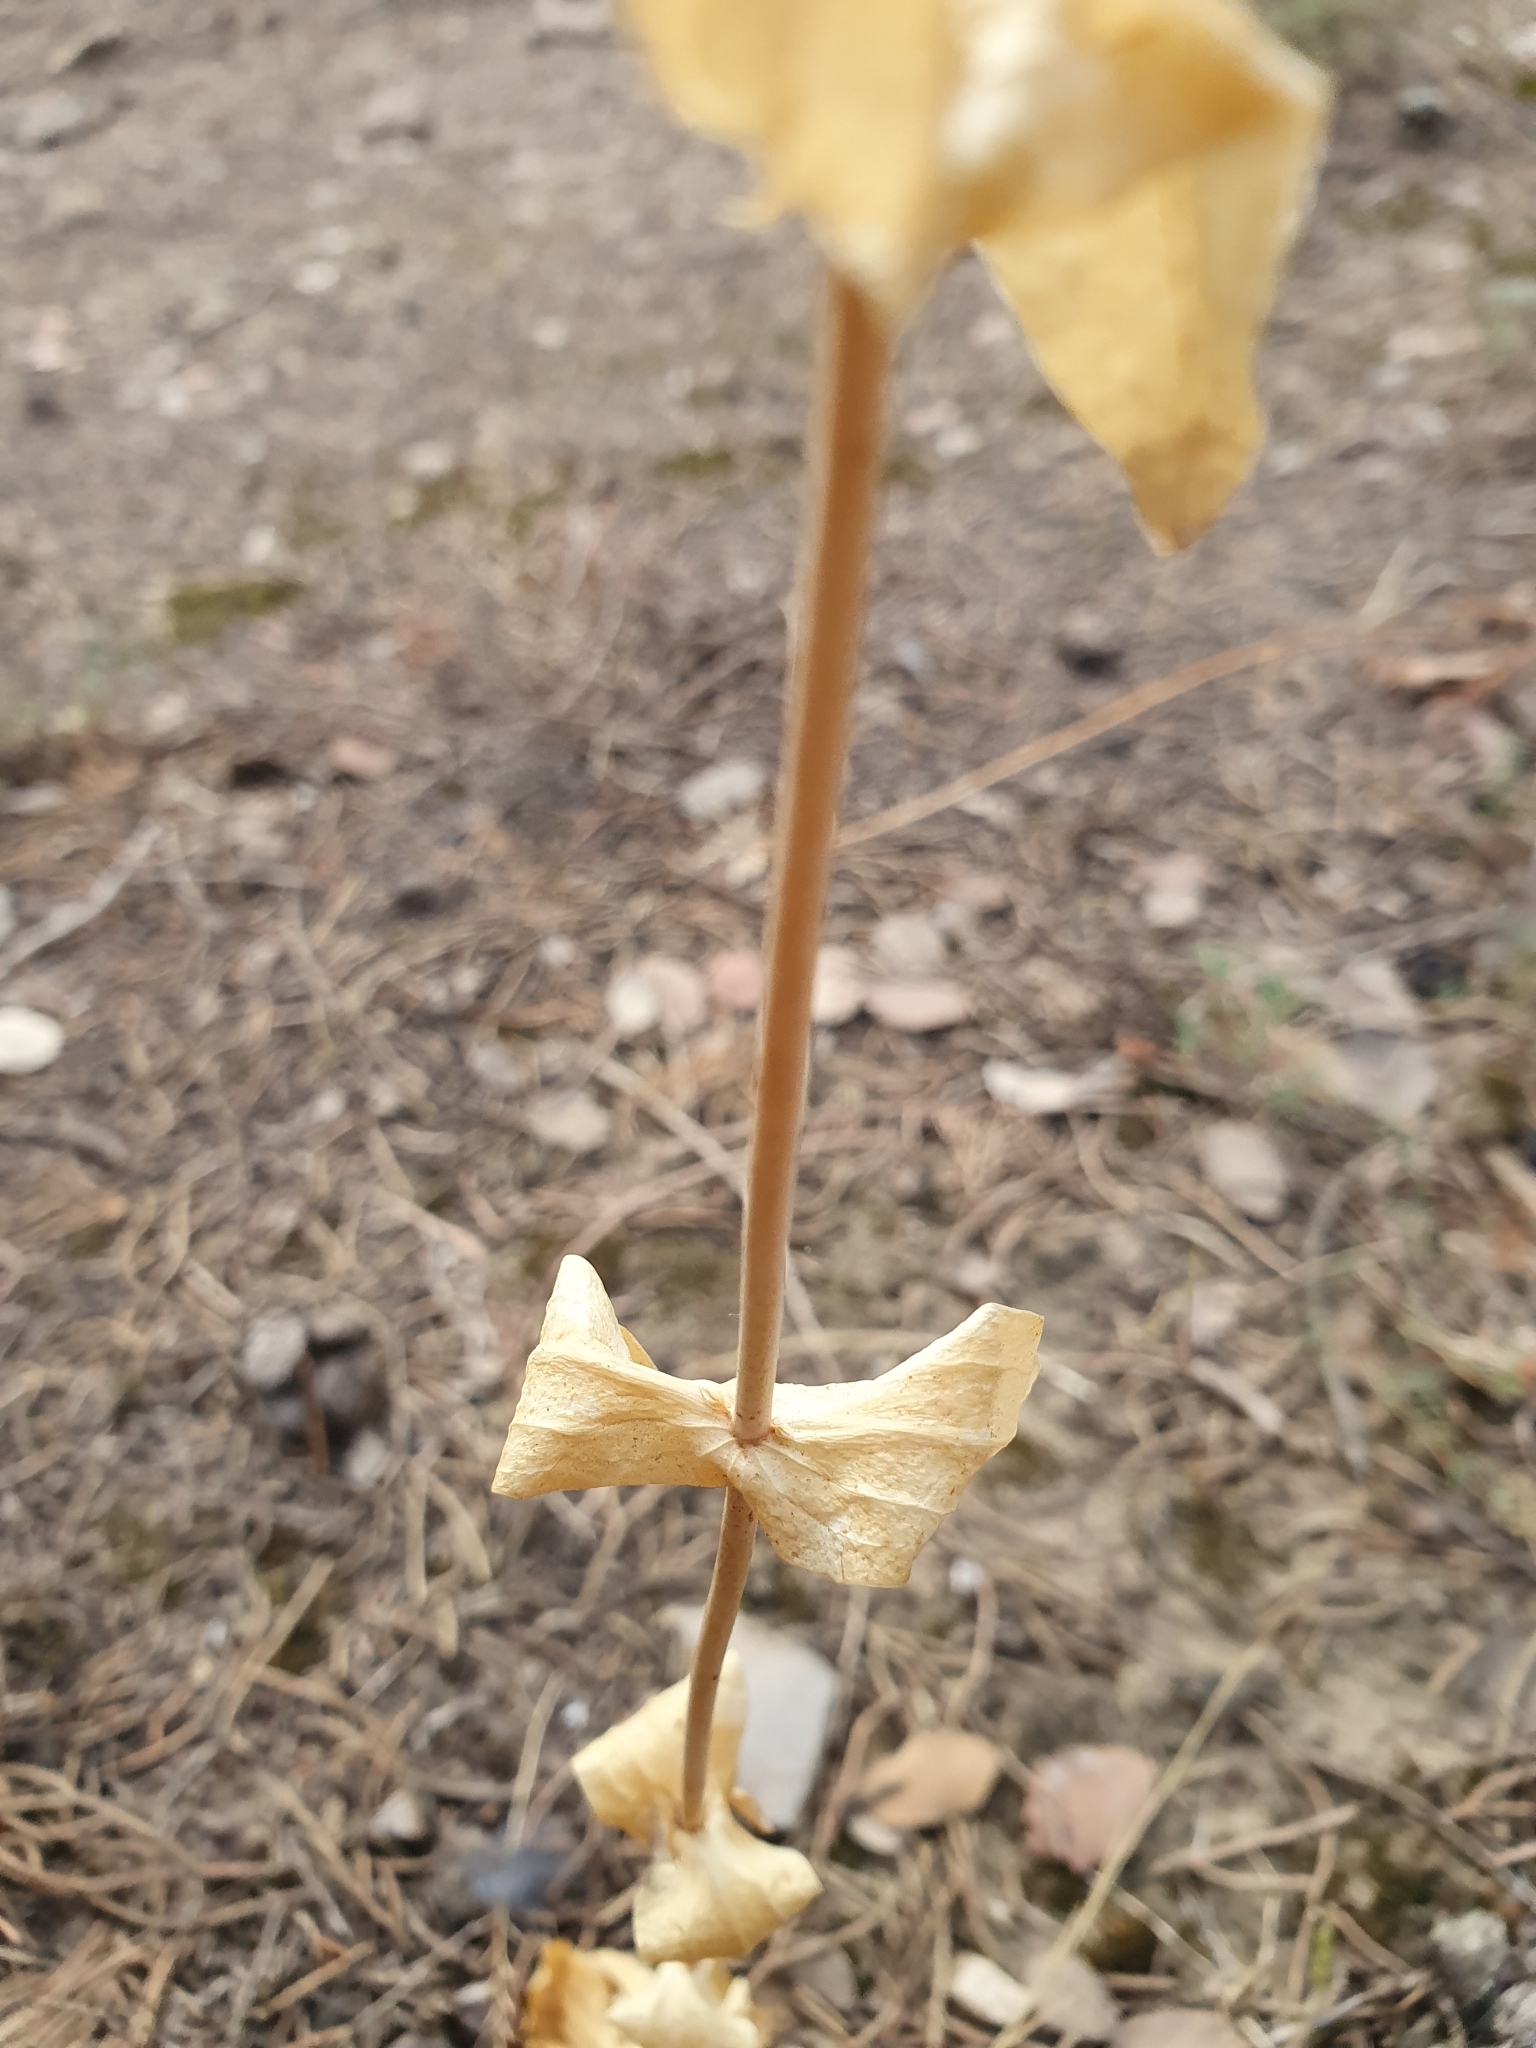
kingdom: Plantae
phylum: Tracheophyta
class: Magnoliopsida
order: Gentianales
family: Gentianaceae
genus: Blackstonia
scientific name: Blackstonia grandiflora
